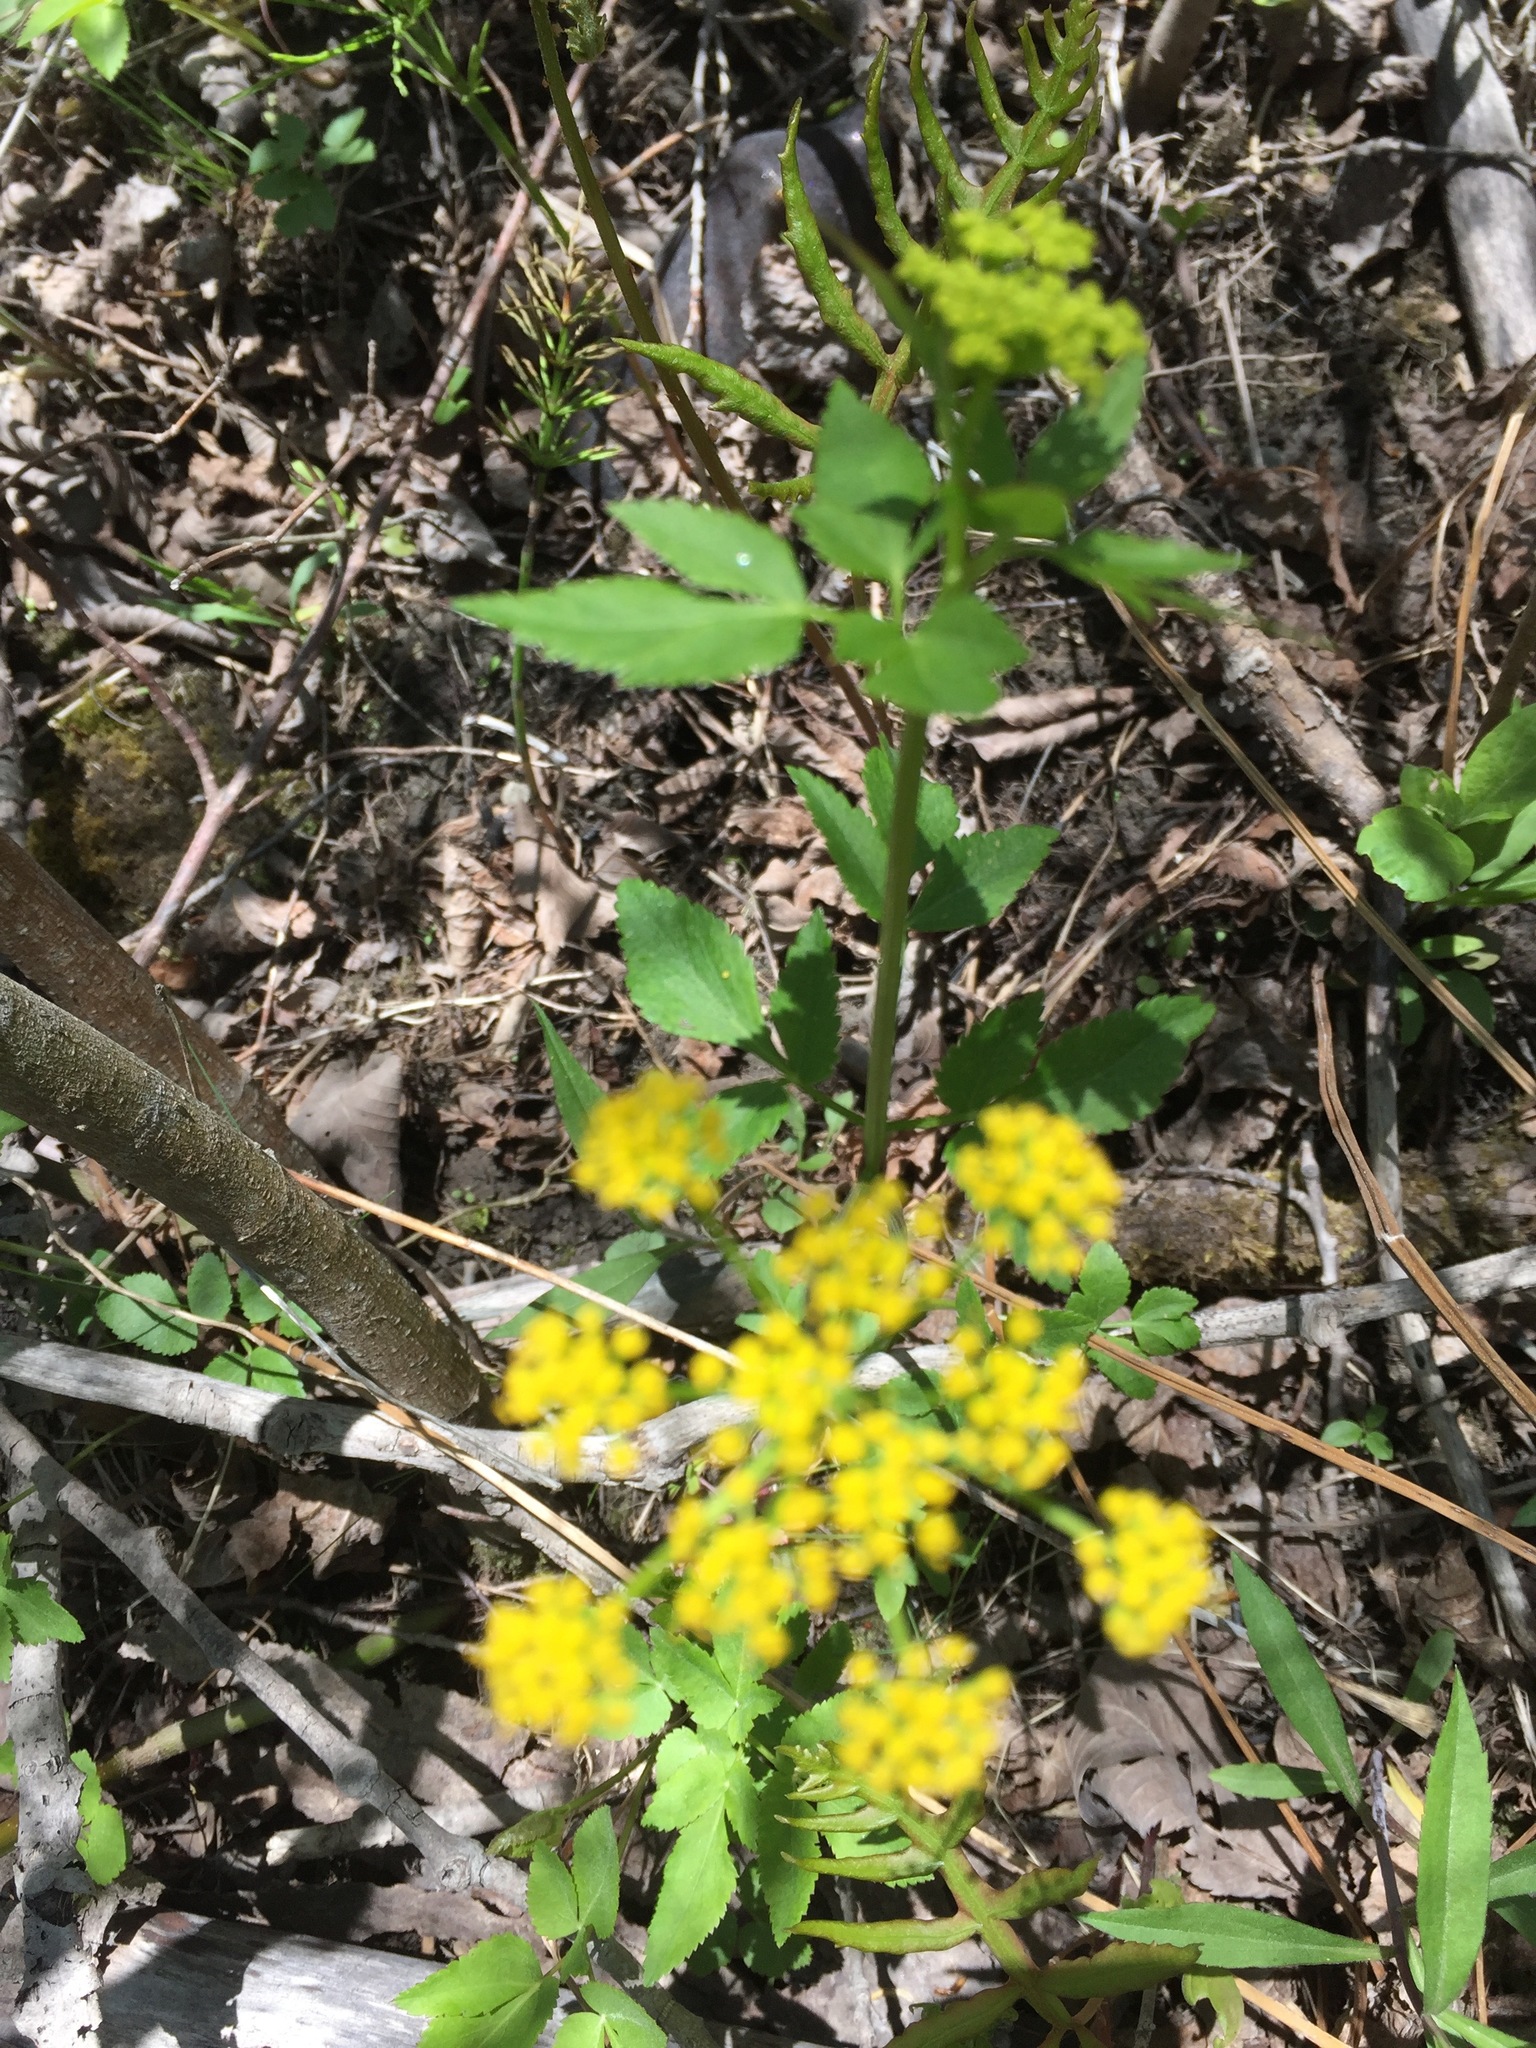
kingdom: Plantae
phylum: Tracheophyta
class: Magnoliopsida
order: Apiales
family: Apiaceae
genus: Zizia
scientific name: Zizia aurea
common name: Golden alexanders
